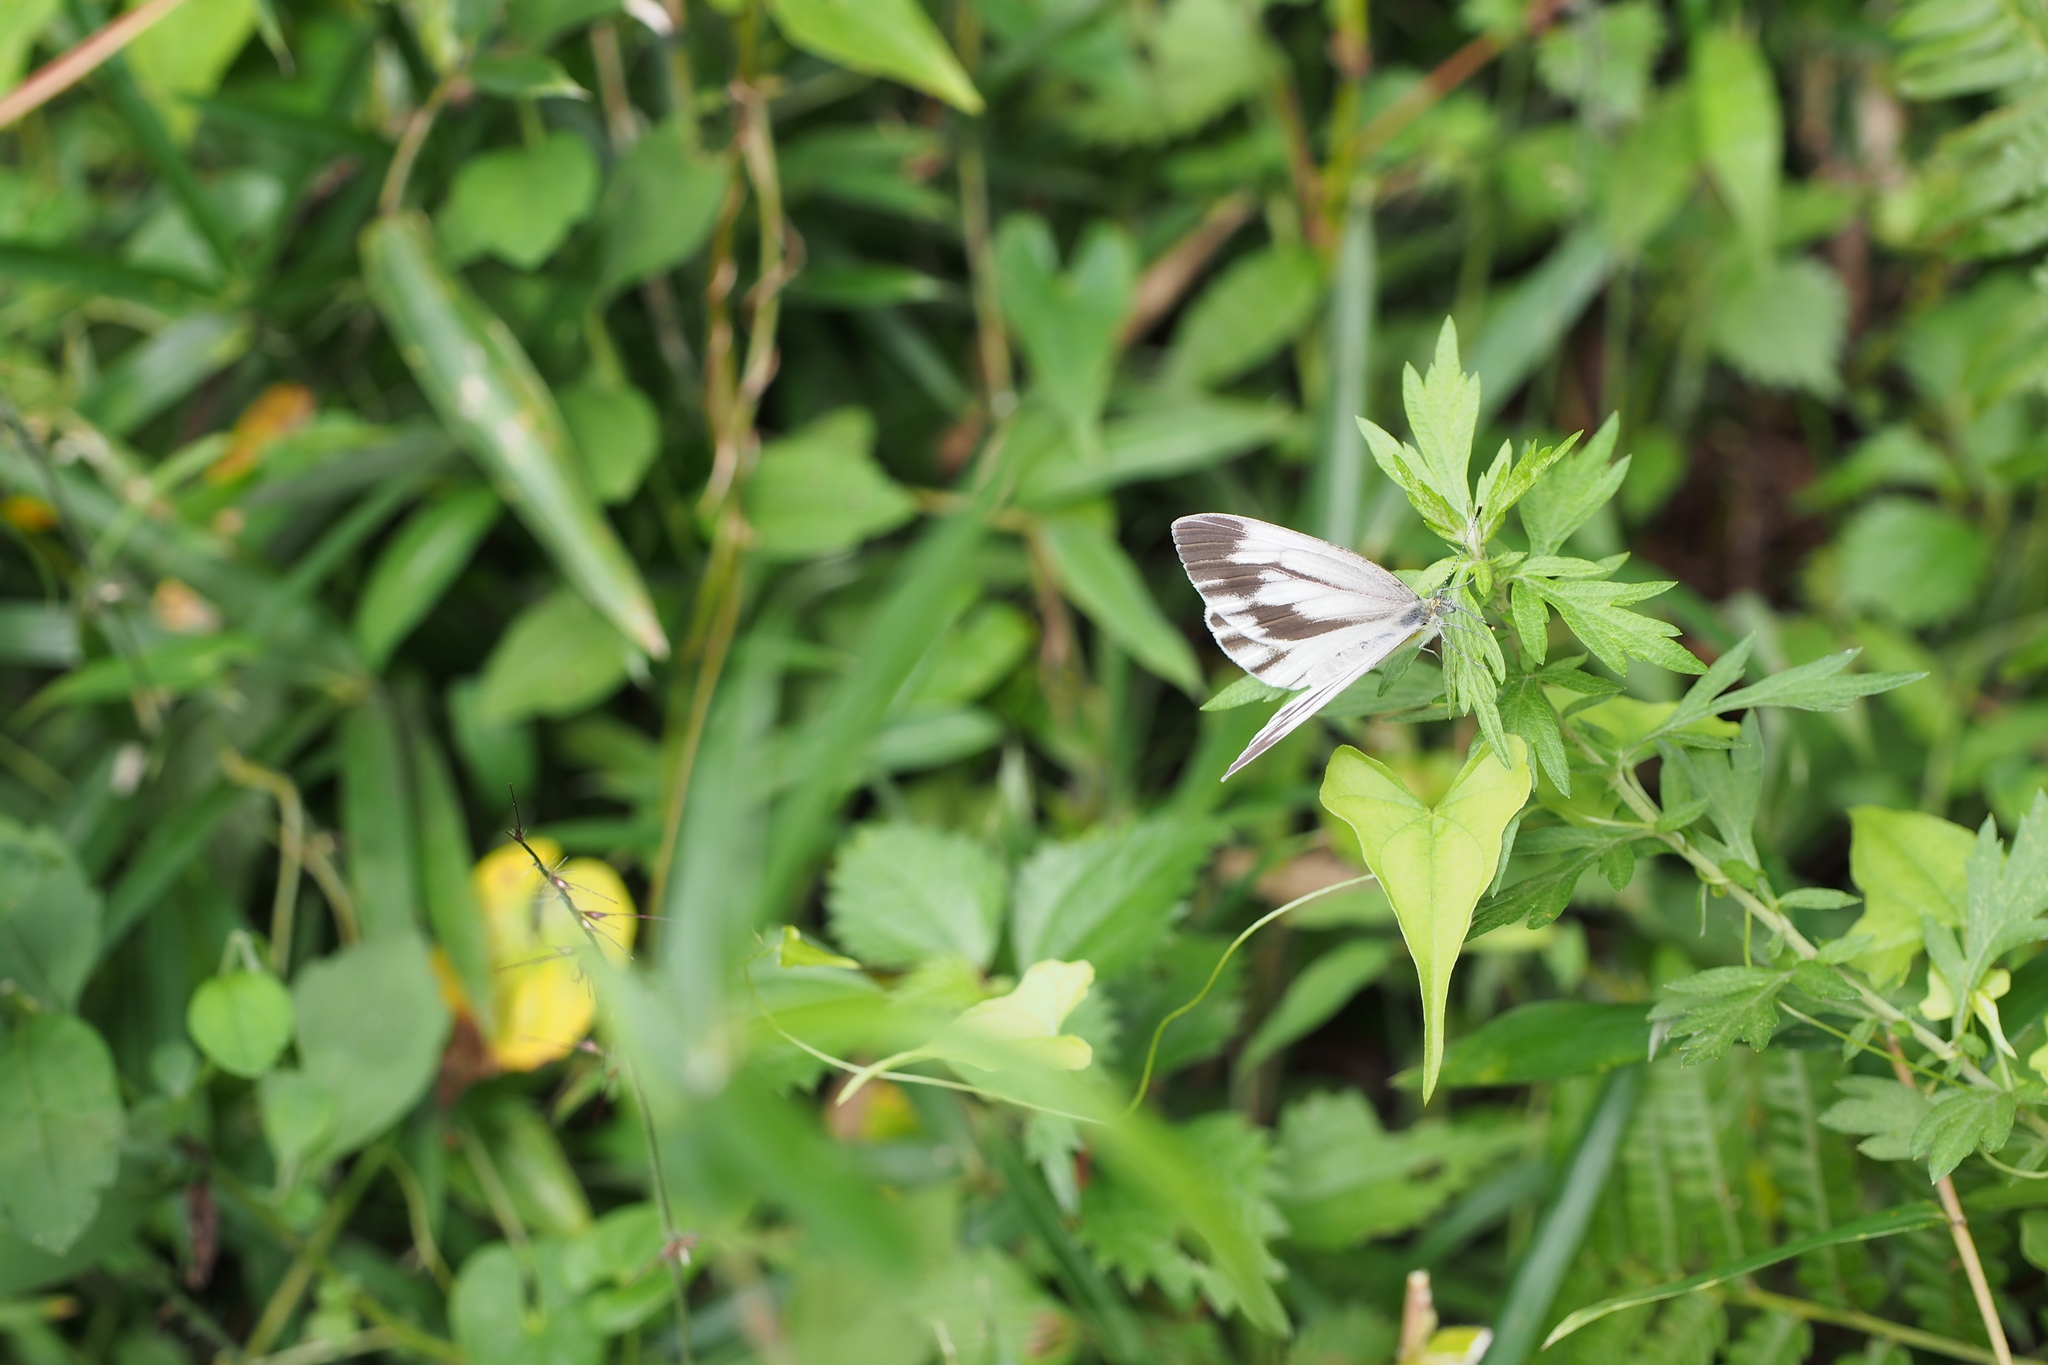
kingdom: Animalia
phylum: Arthropoda
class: Insecta
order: Lepidoptera
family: Pieridae
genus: Pieris
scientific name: Pieris melete
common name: Asian green-veined white
